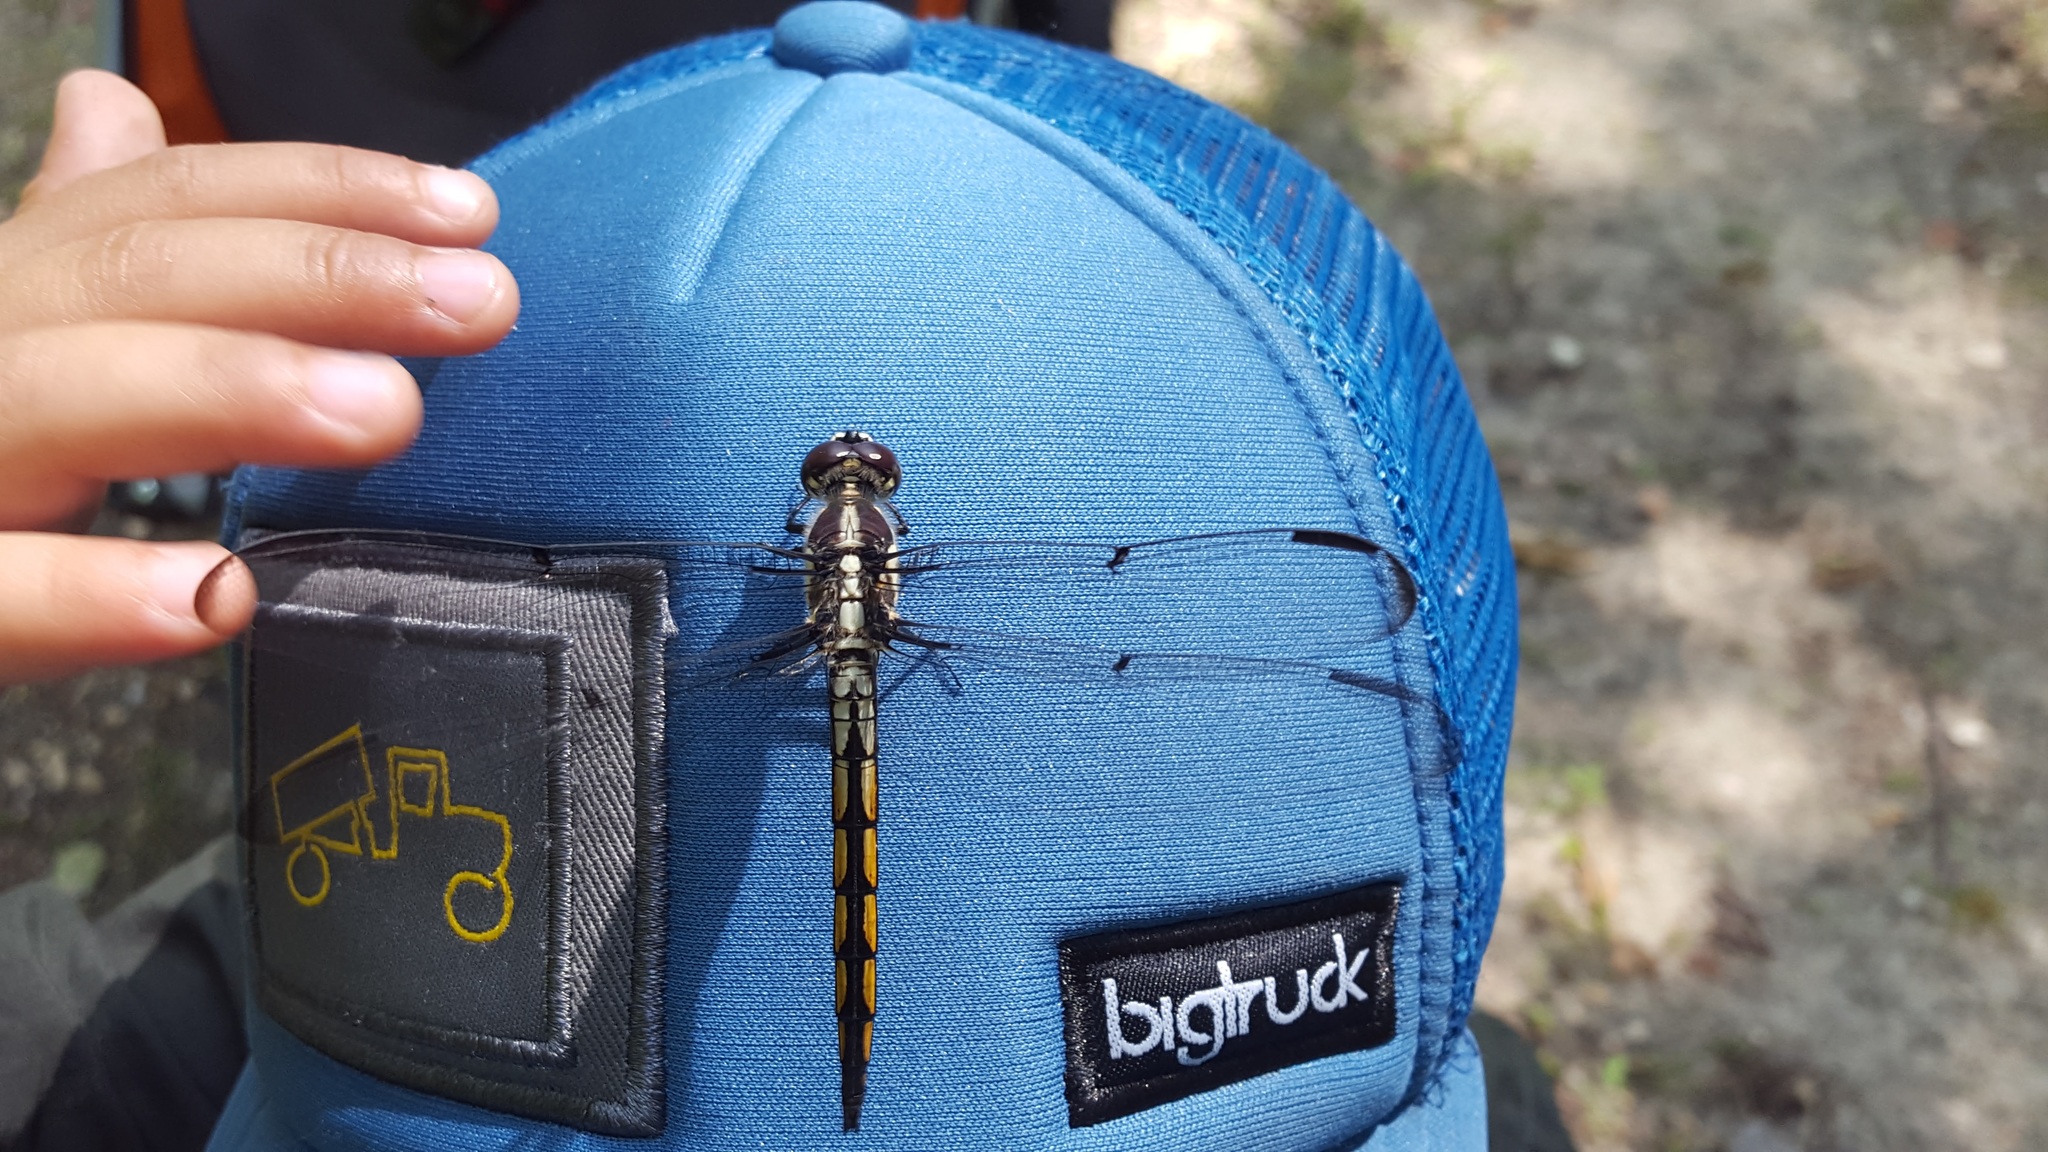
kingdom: Animalia
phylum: Arthropoda
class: Insecta
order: Odonata
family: Libellulidae
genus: Libellula
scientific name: Libellula vibrans
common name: Great blue skimmer
